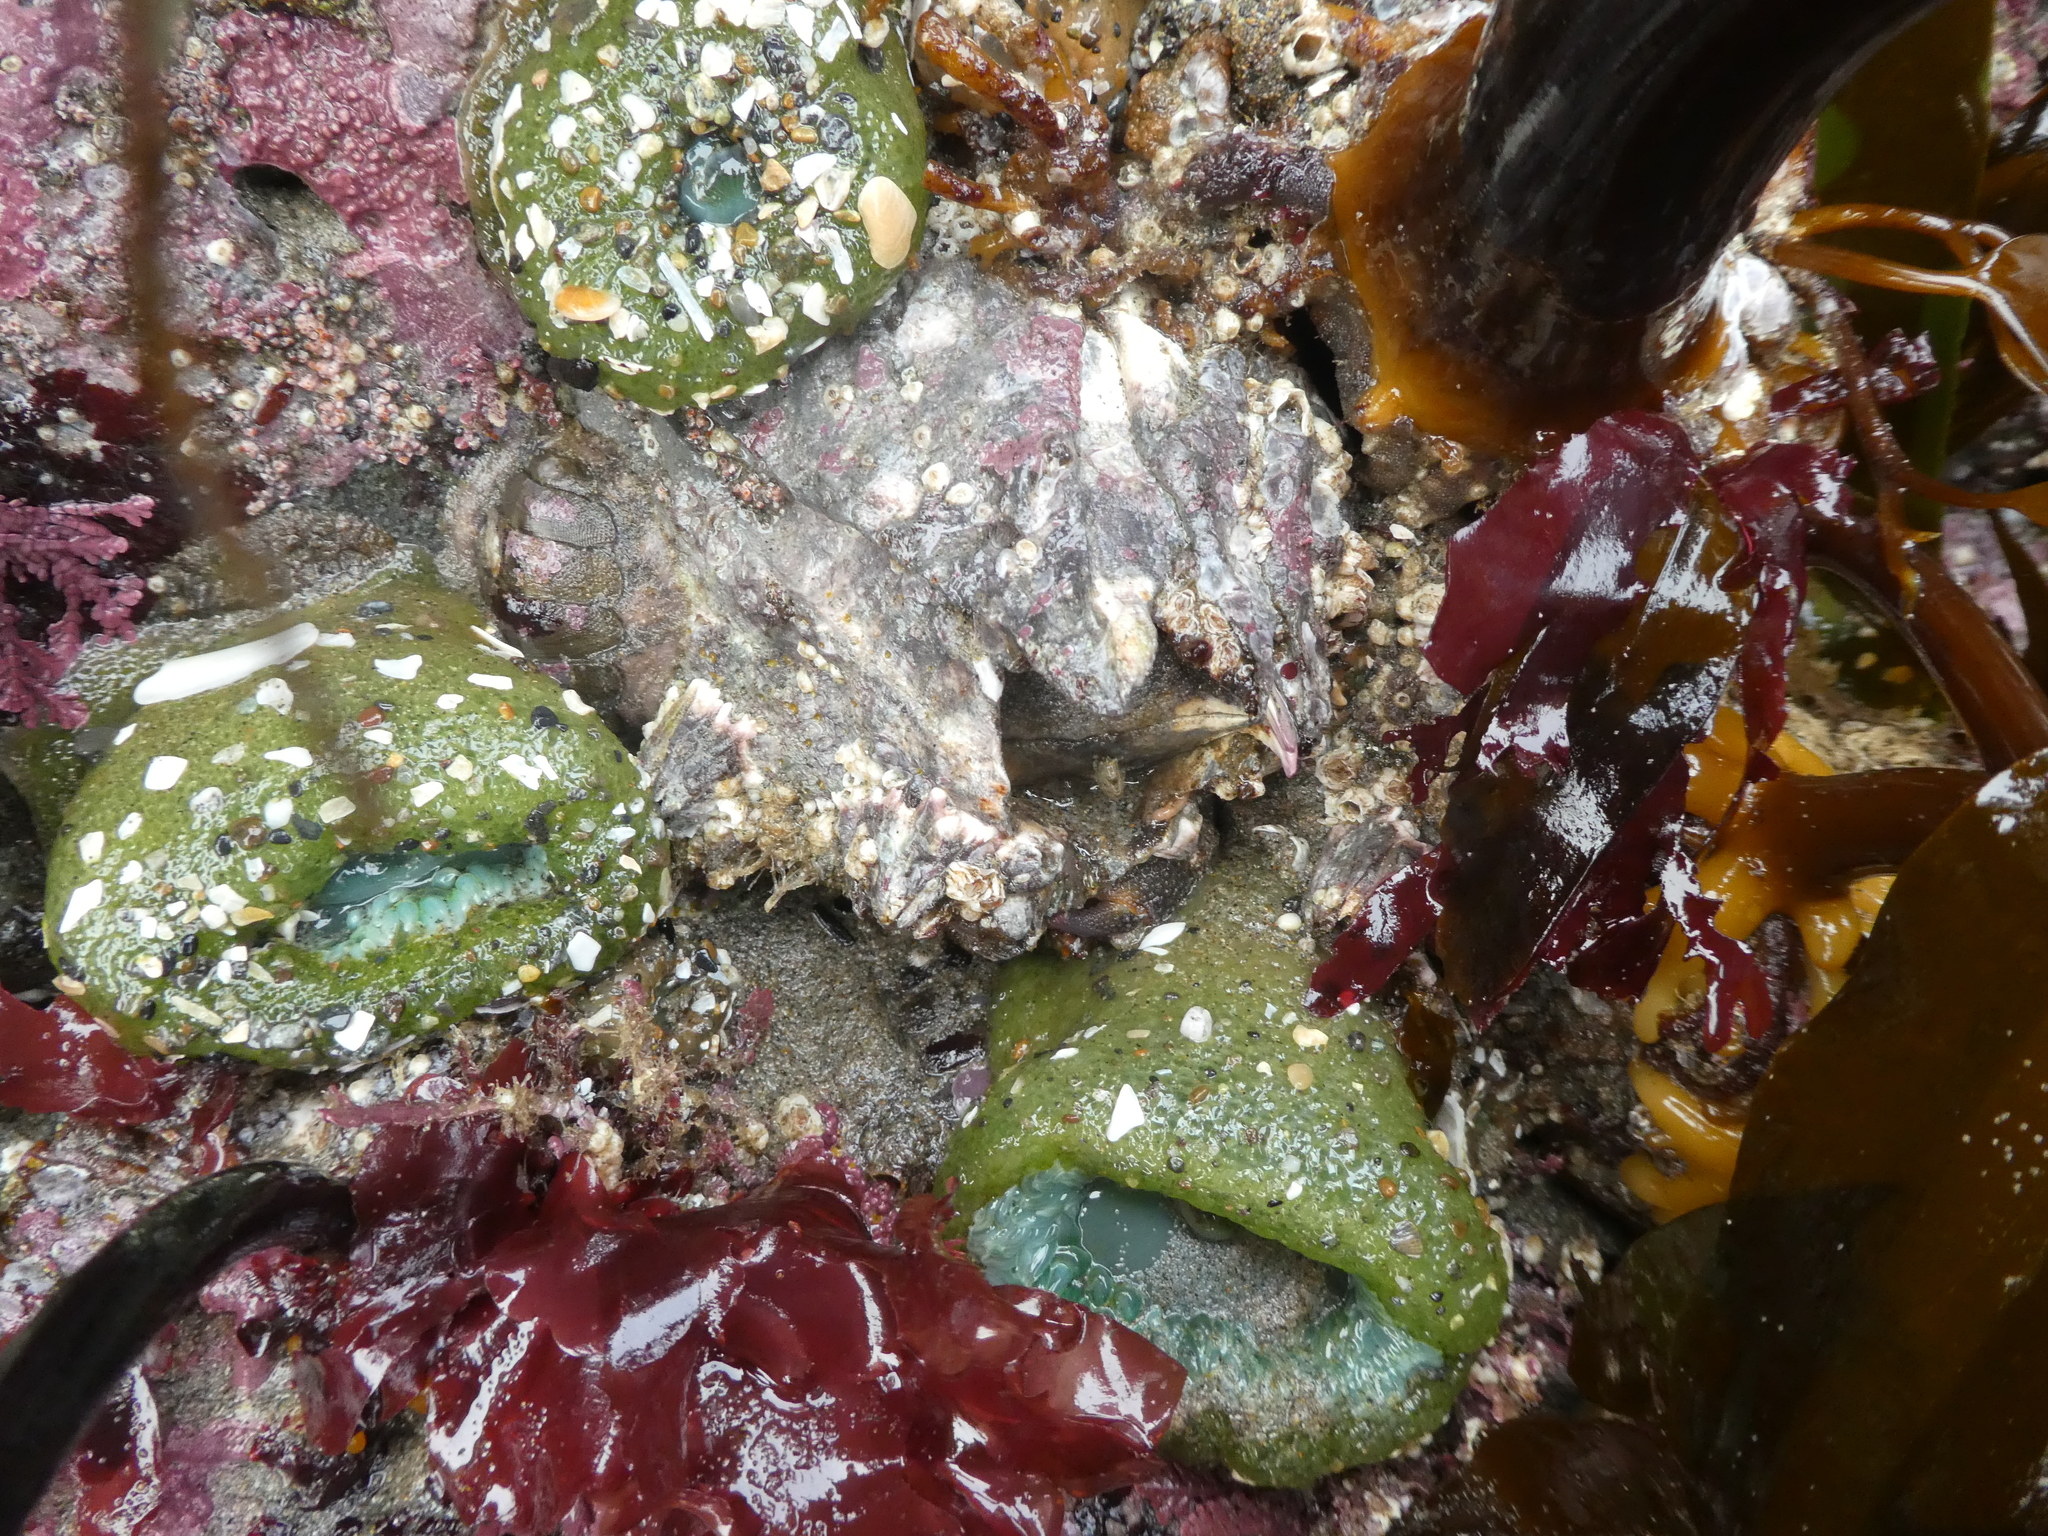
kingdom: Animalia
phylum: Arthropoda
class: Maxillopoda
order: Sessilia
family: Balanidae
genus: Balanus
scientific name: Balanus nubilus
